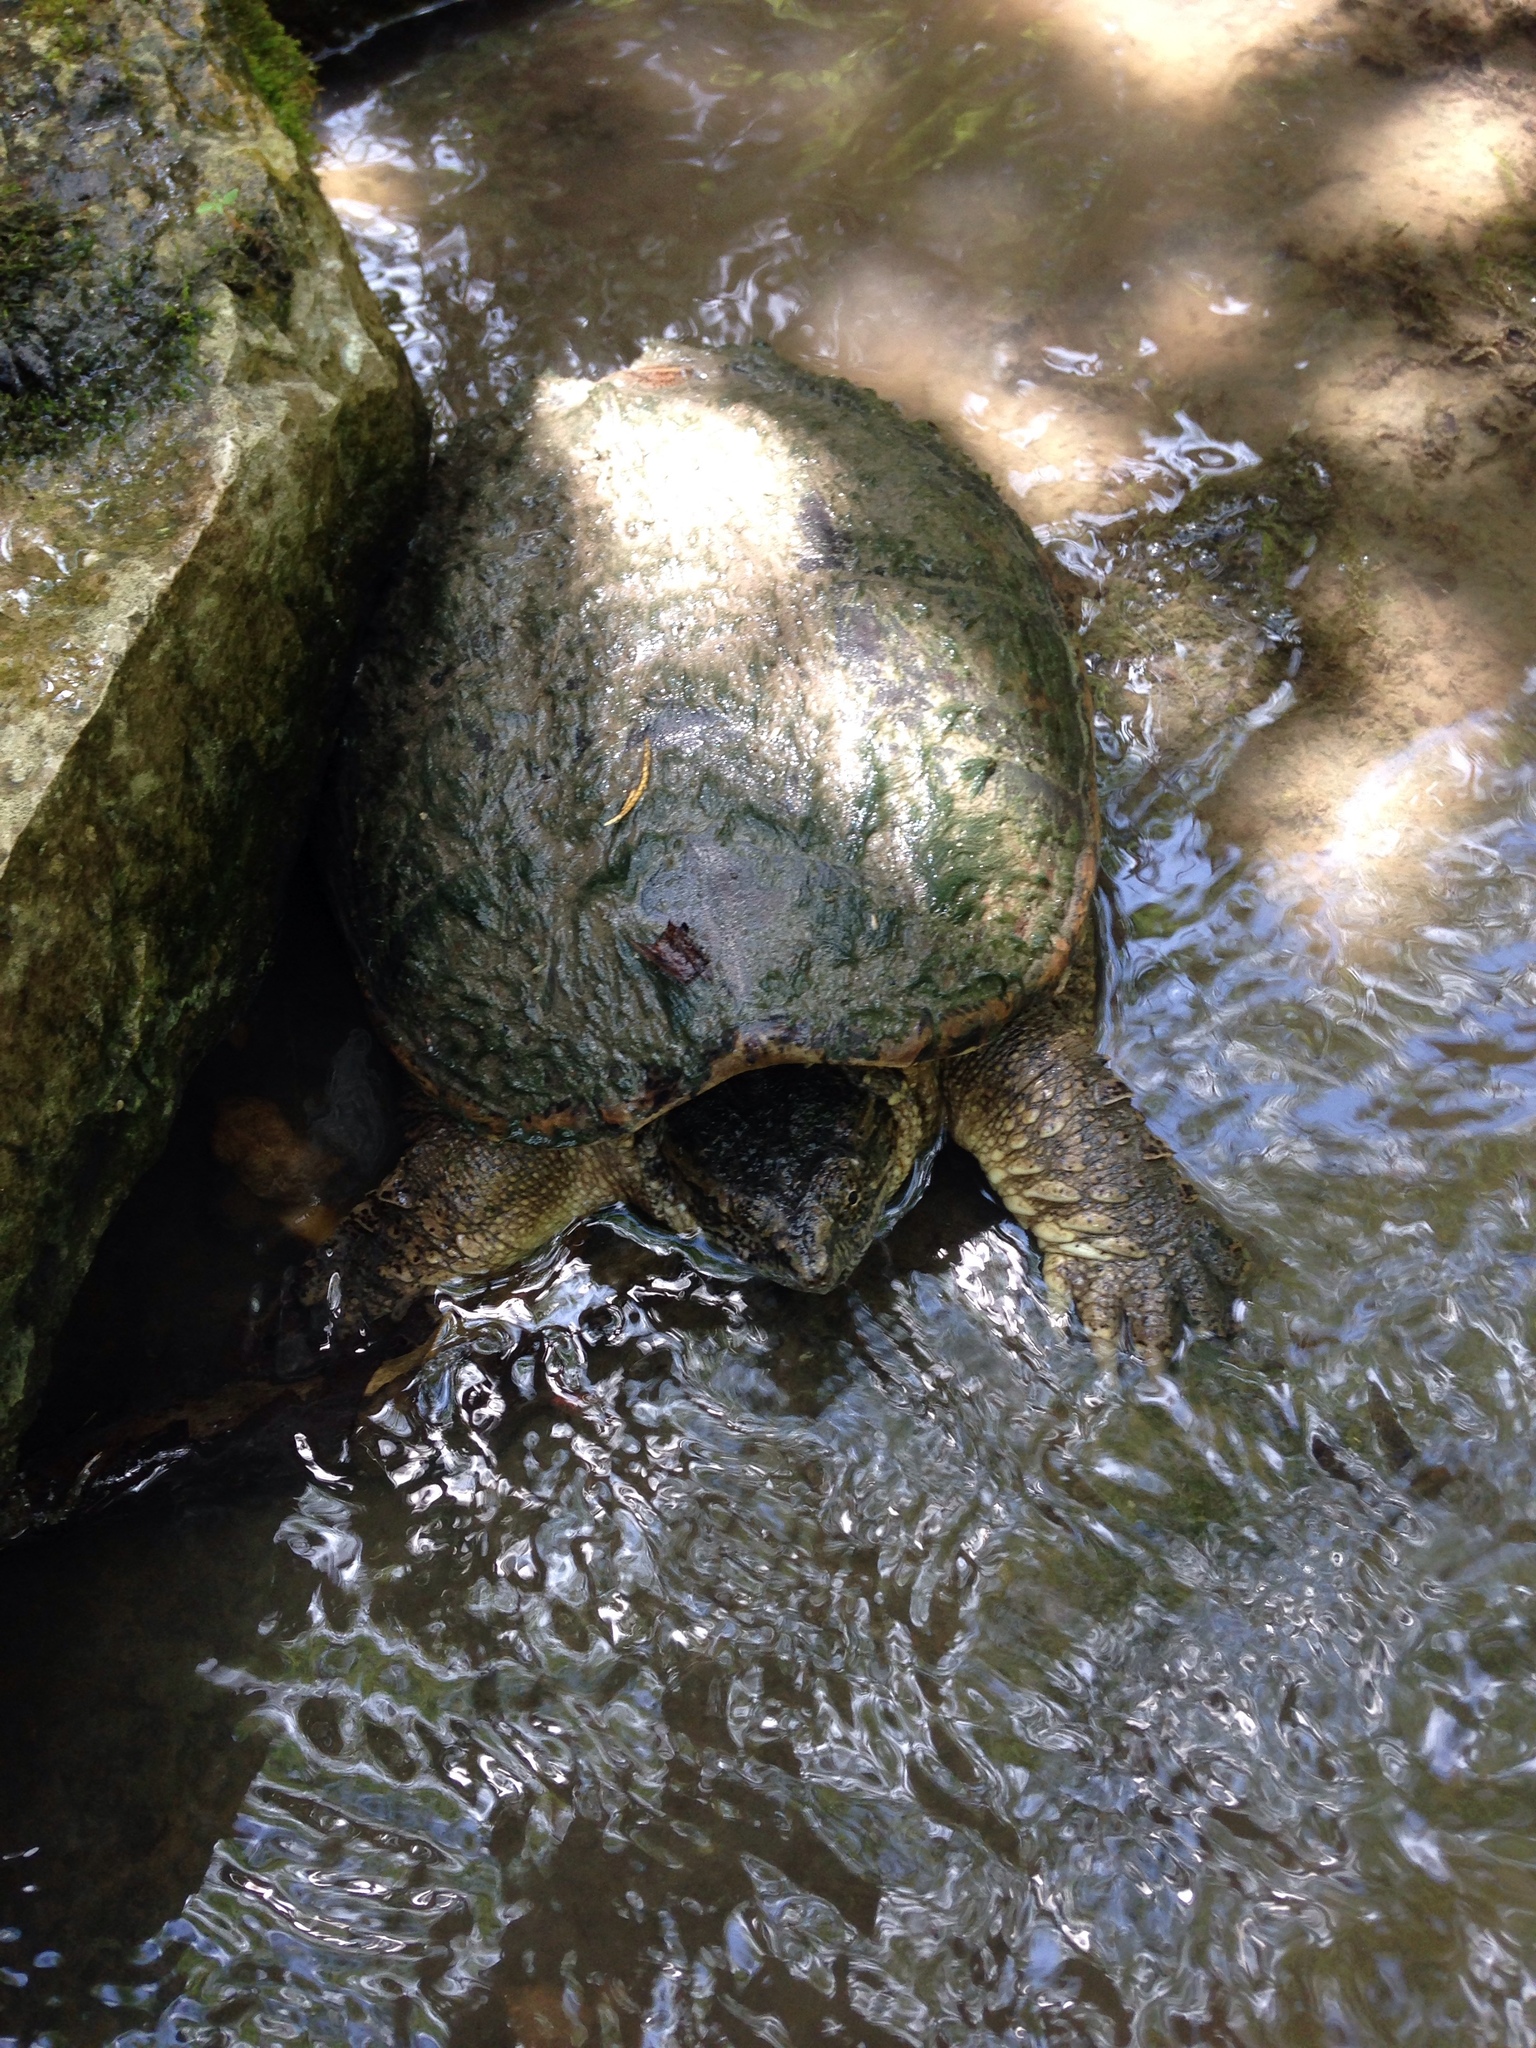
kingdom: Animalia
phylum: Chordata
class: Testudines
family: Chelydridae
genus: Chelydra
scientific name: Chelydra serpentina
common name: Common snapping turtle
